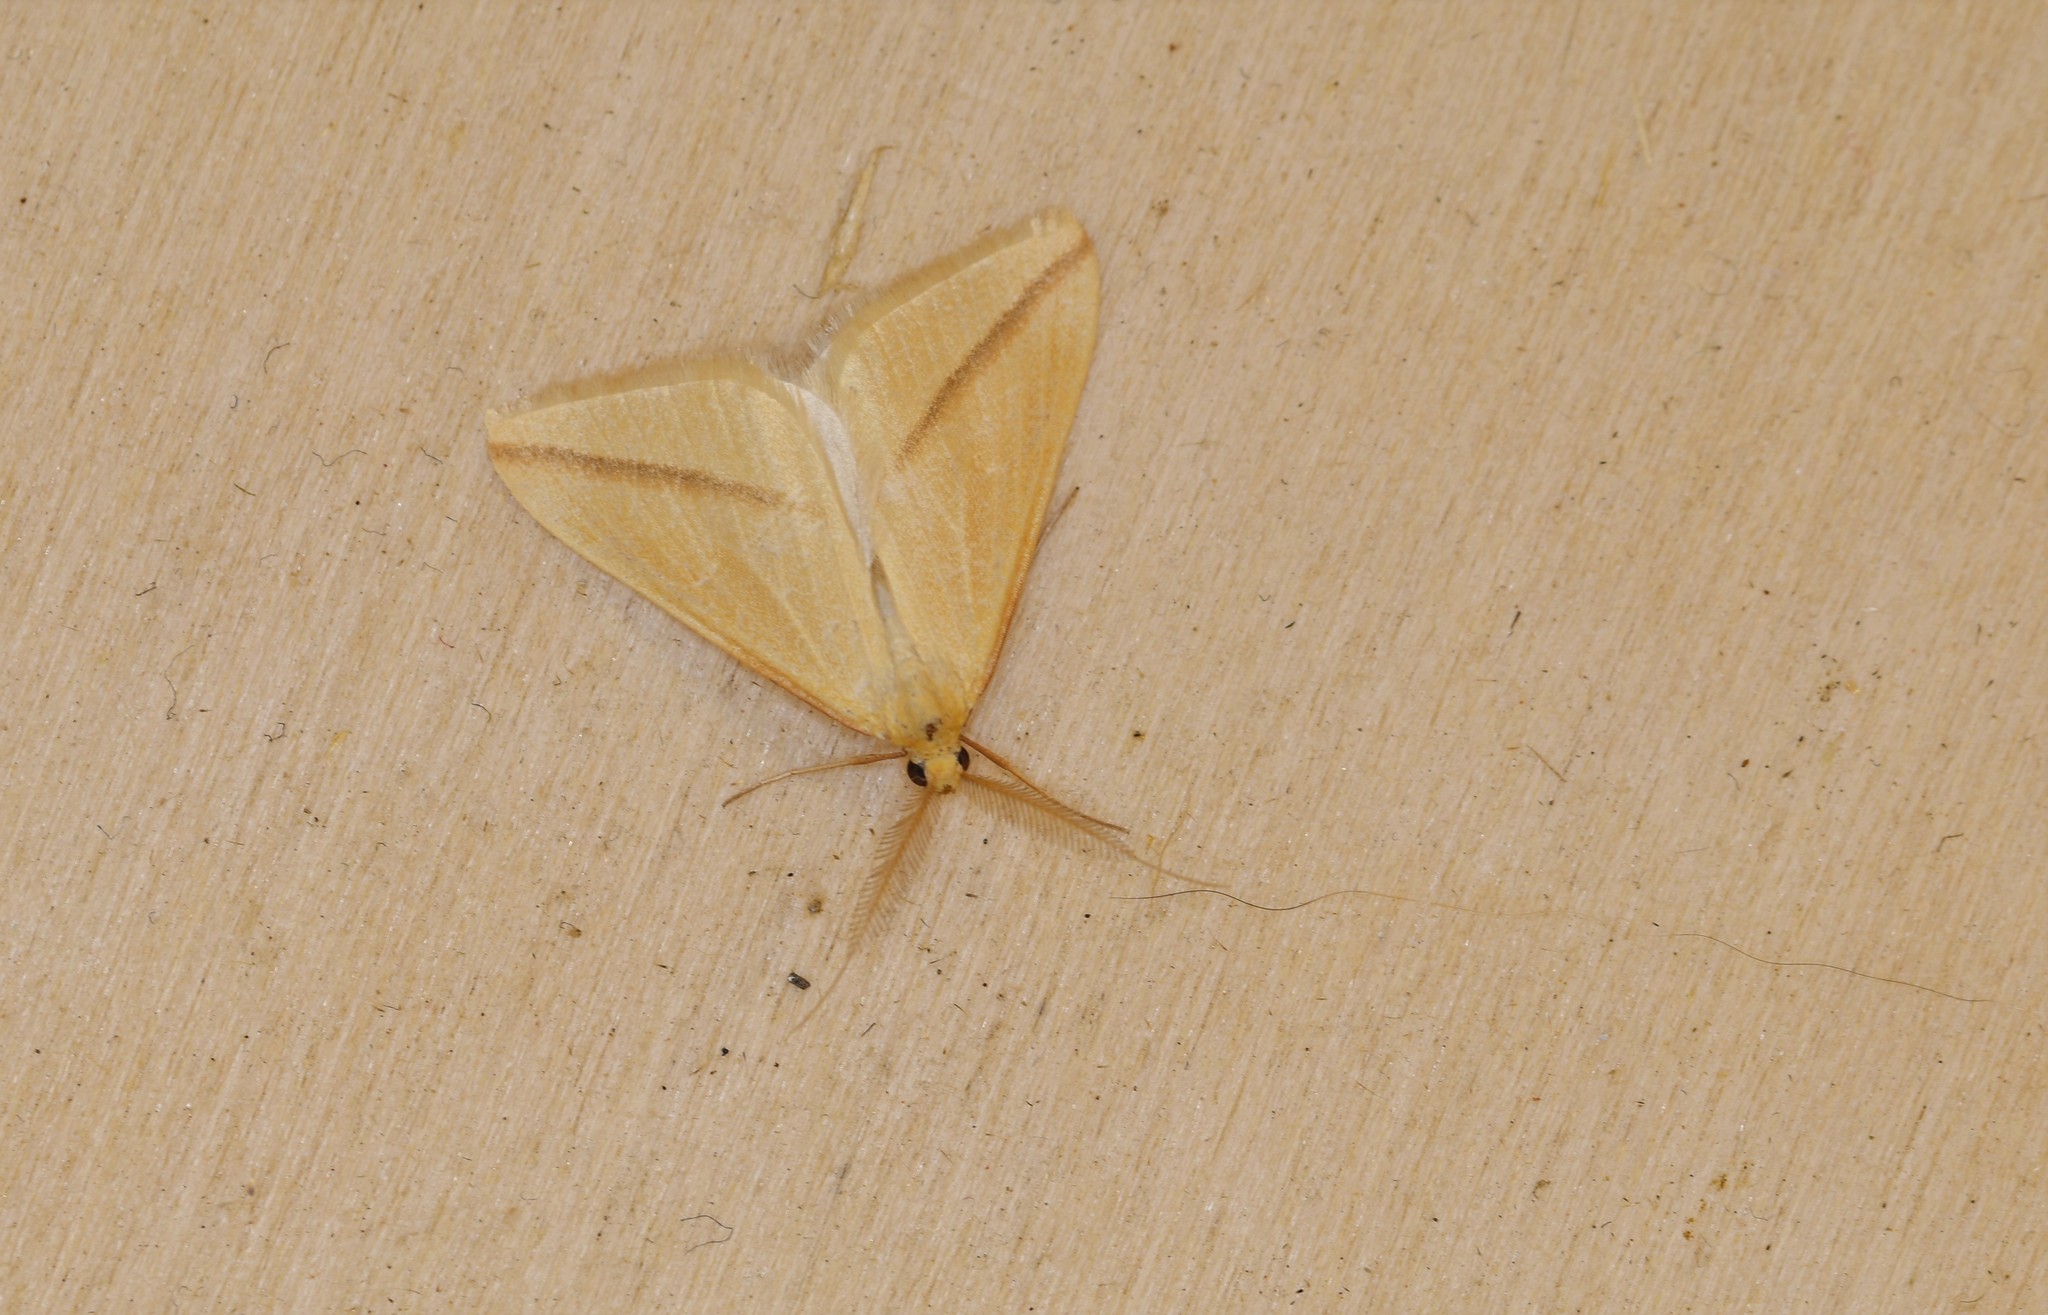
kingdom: Animalia
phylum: Arthropoda
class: Insecta
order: Lepidoptera
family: Geometridae
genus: Rhodometra
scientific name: Rhodometra sacraria
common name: Vestal
